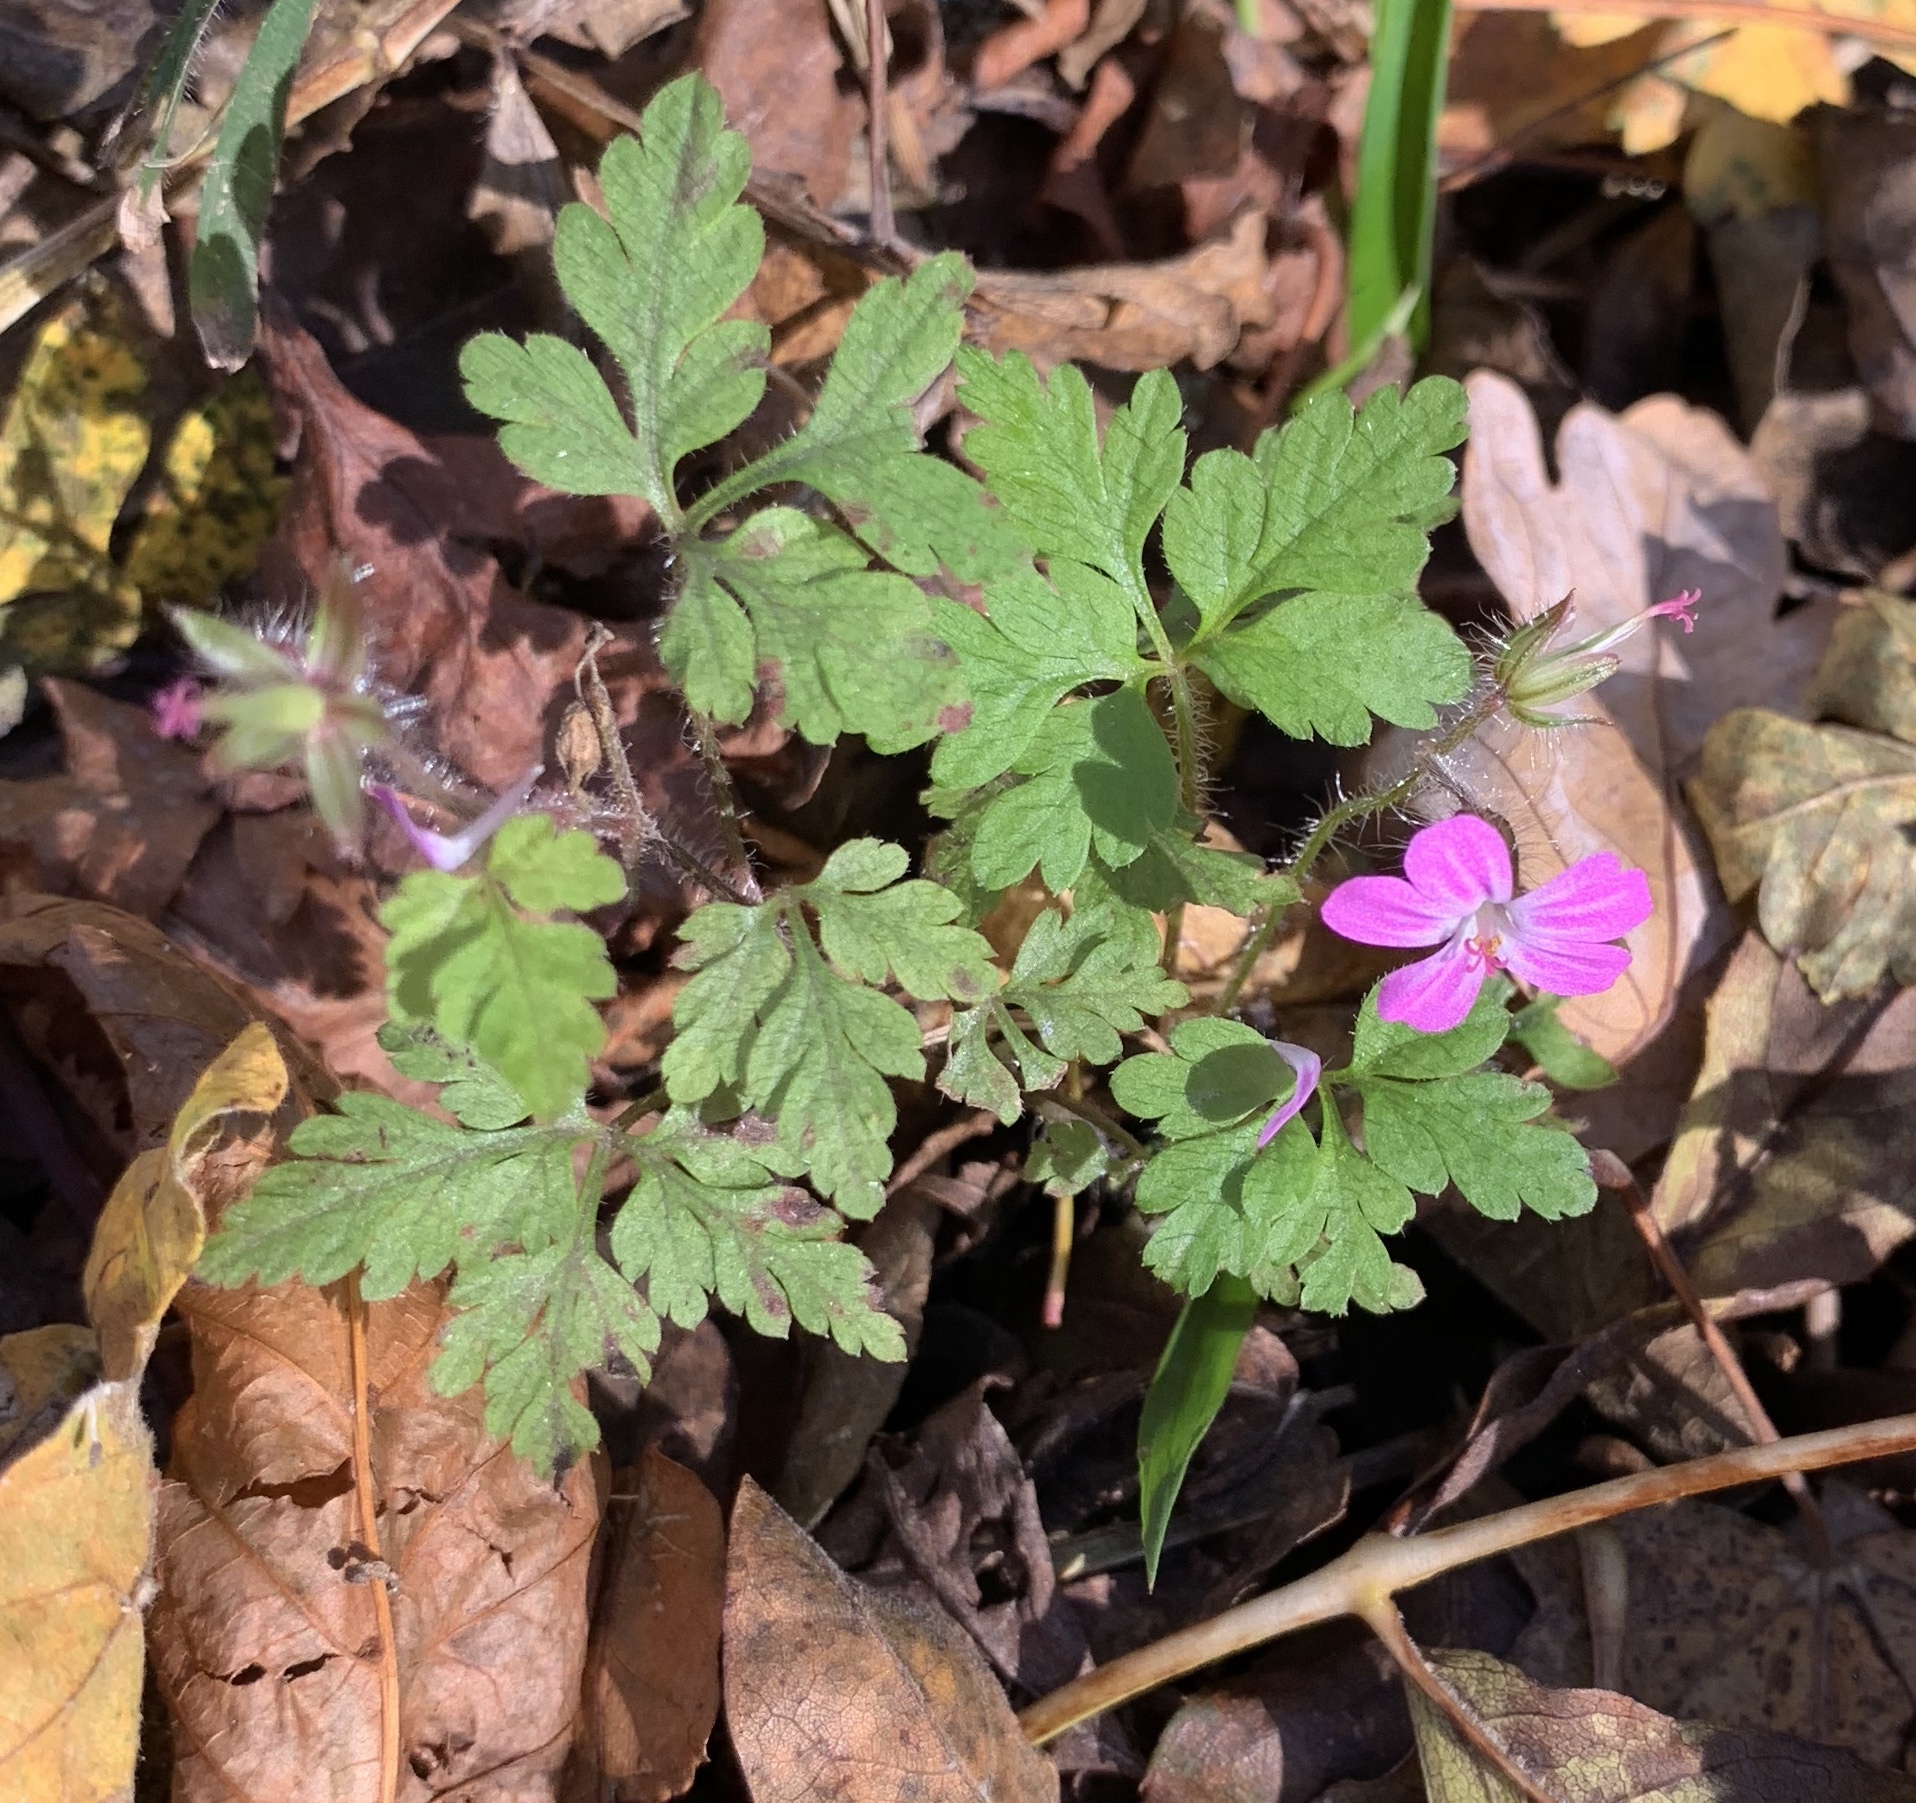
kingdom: Plantae
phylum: Tracheophyta
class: Magnoliopsida
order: Geraniales
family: Geraniaceae
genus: Geranium
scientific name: Geranium robertianum
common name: Herb-robert
